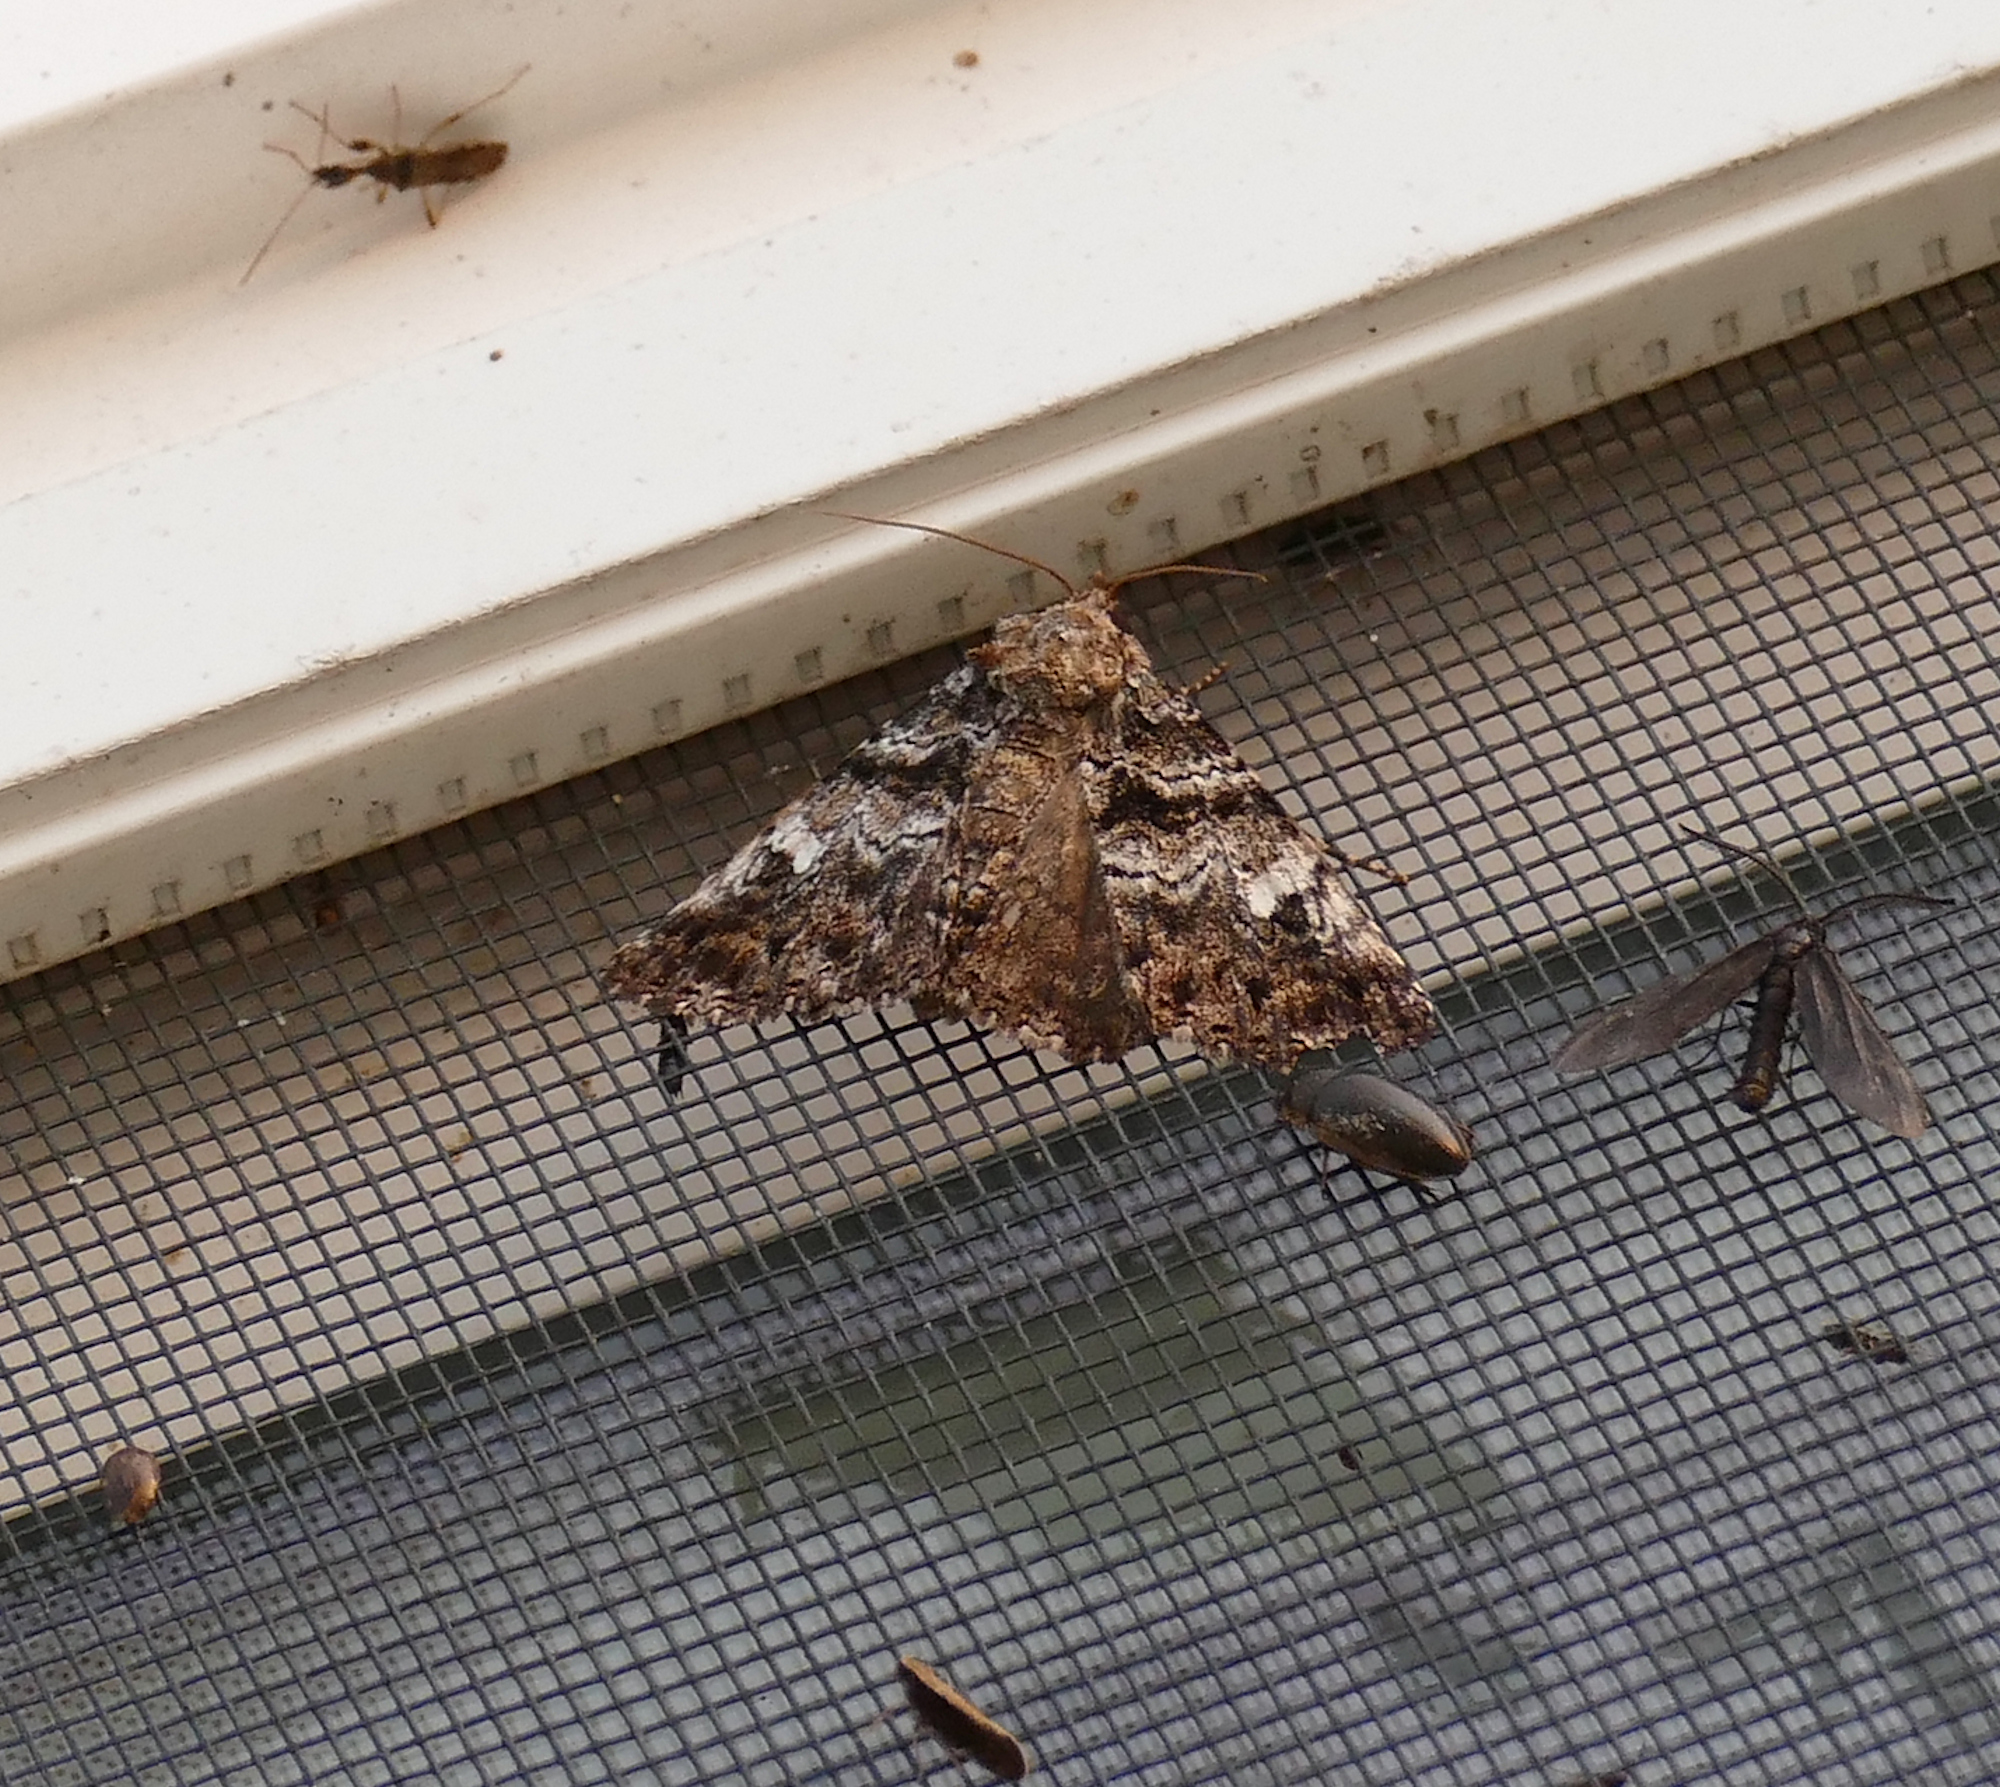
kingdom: Animalia
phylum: Arthropoda
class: Insecta
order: Lepidoptera
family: Erebidae
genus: Metria
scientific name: Metria amella
